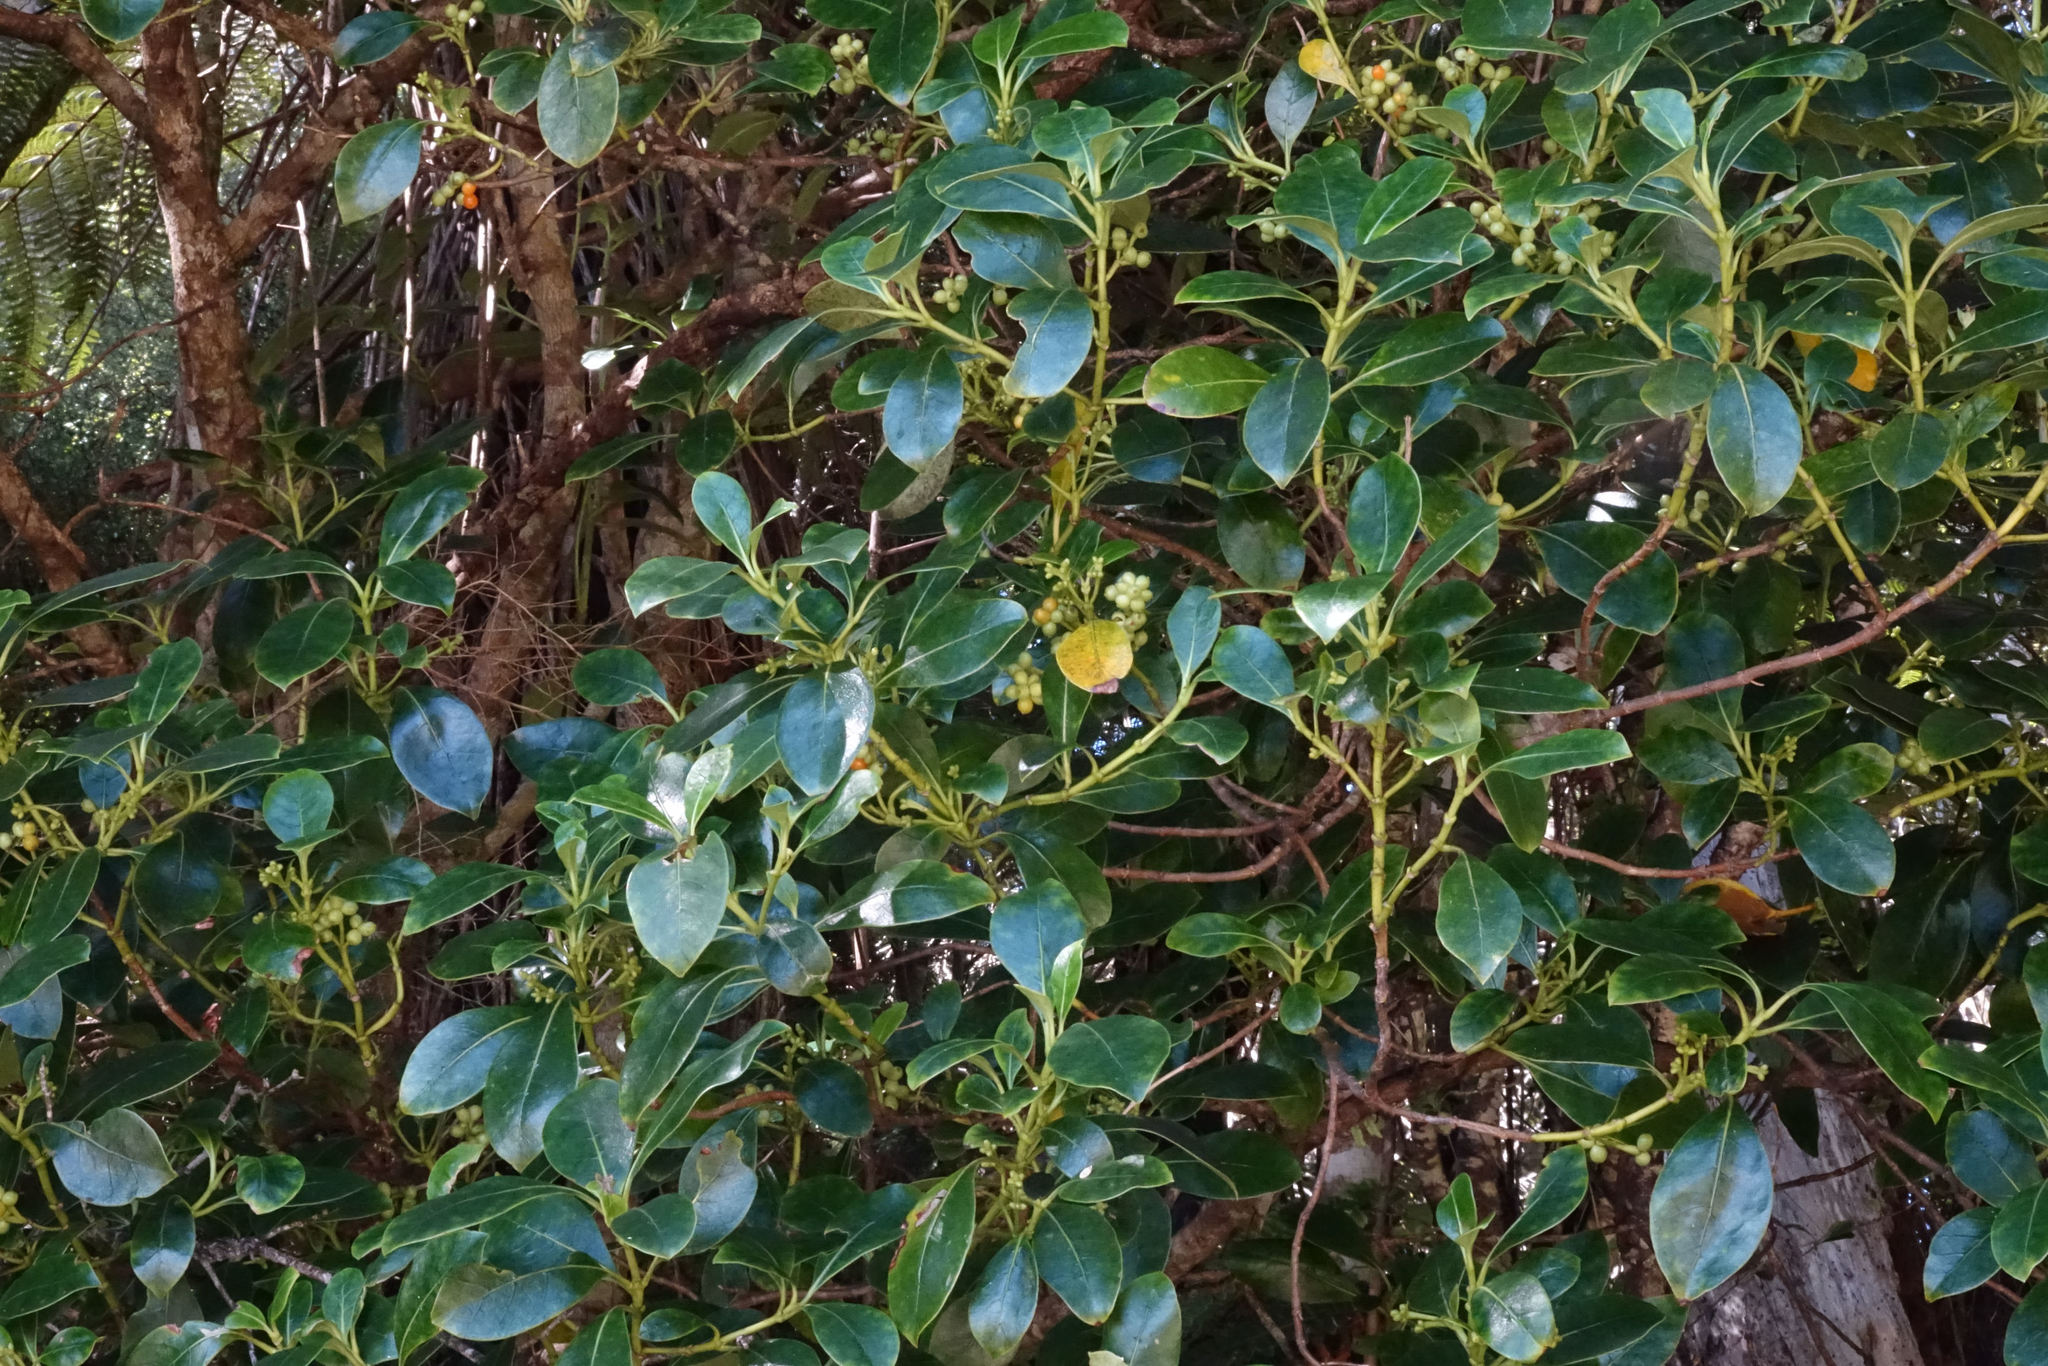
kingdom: Plantae
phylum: Tracheophyta
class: Magnoliopsida
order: Gentianales
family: Rubiaceae
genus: Coprosma
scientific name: Coprosma lucida
